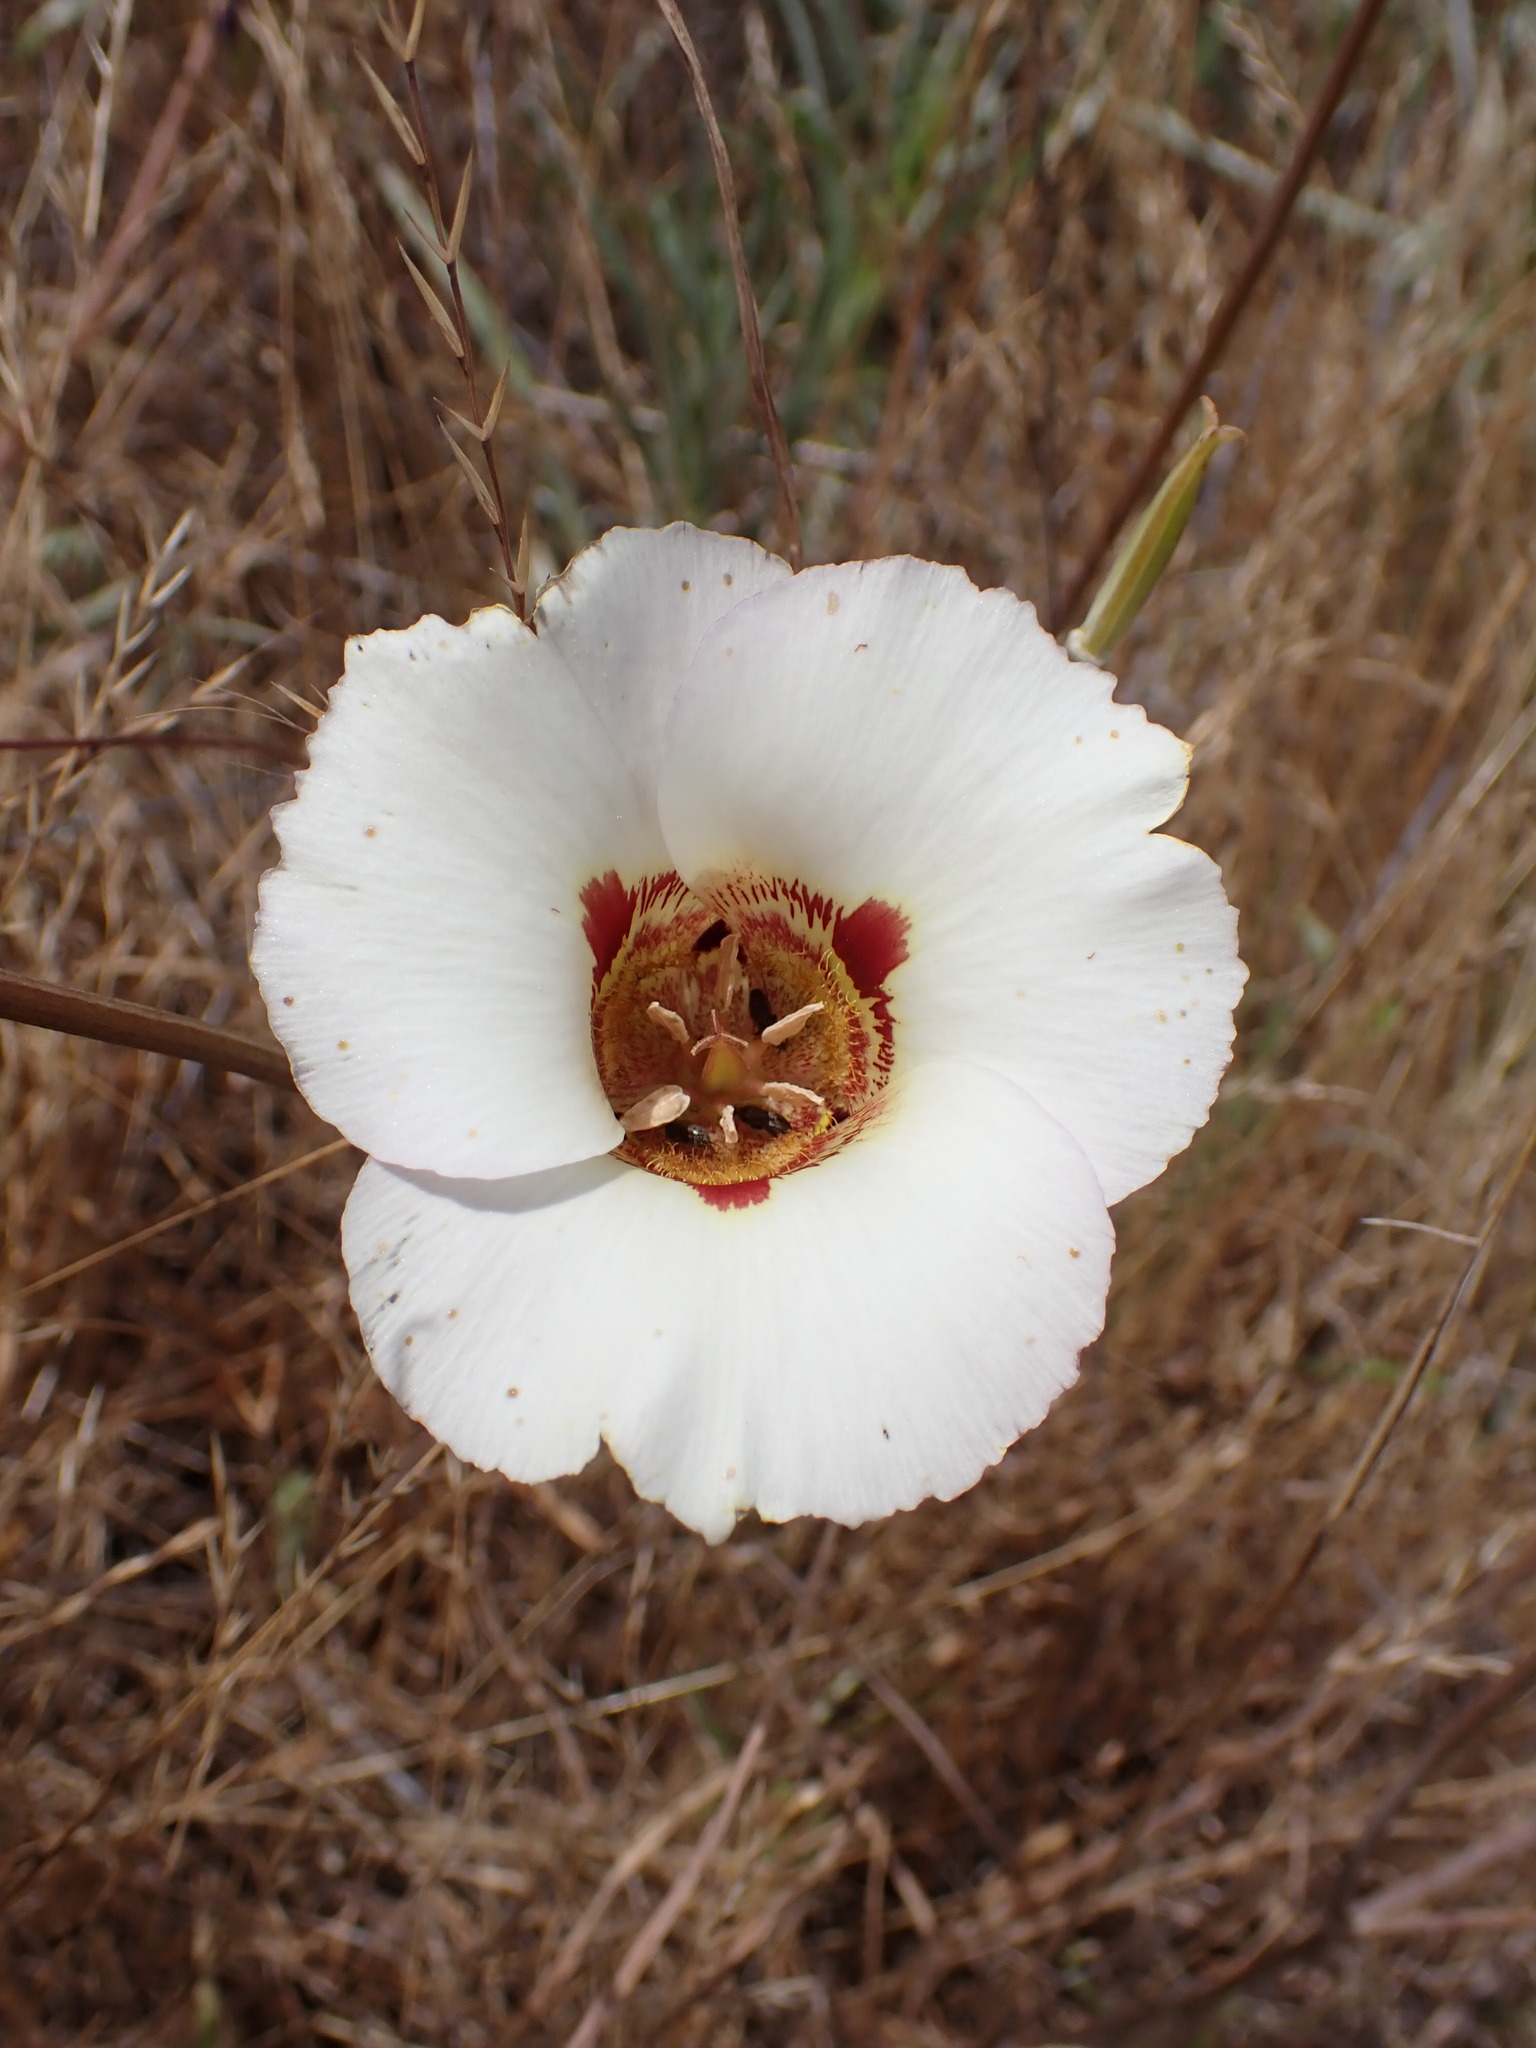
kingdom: Plantae
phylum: Tracheophyta
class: Liliopsida
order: Liliales
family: Liliaceae
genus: Calochortus
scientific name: Calochortus vestae
